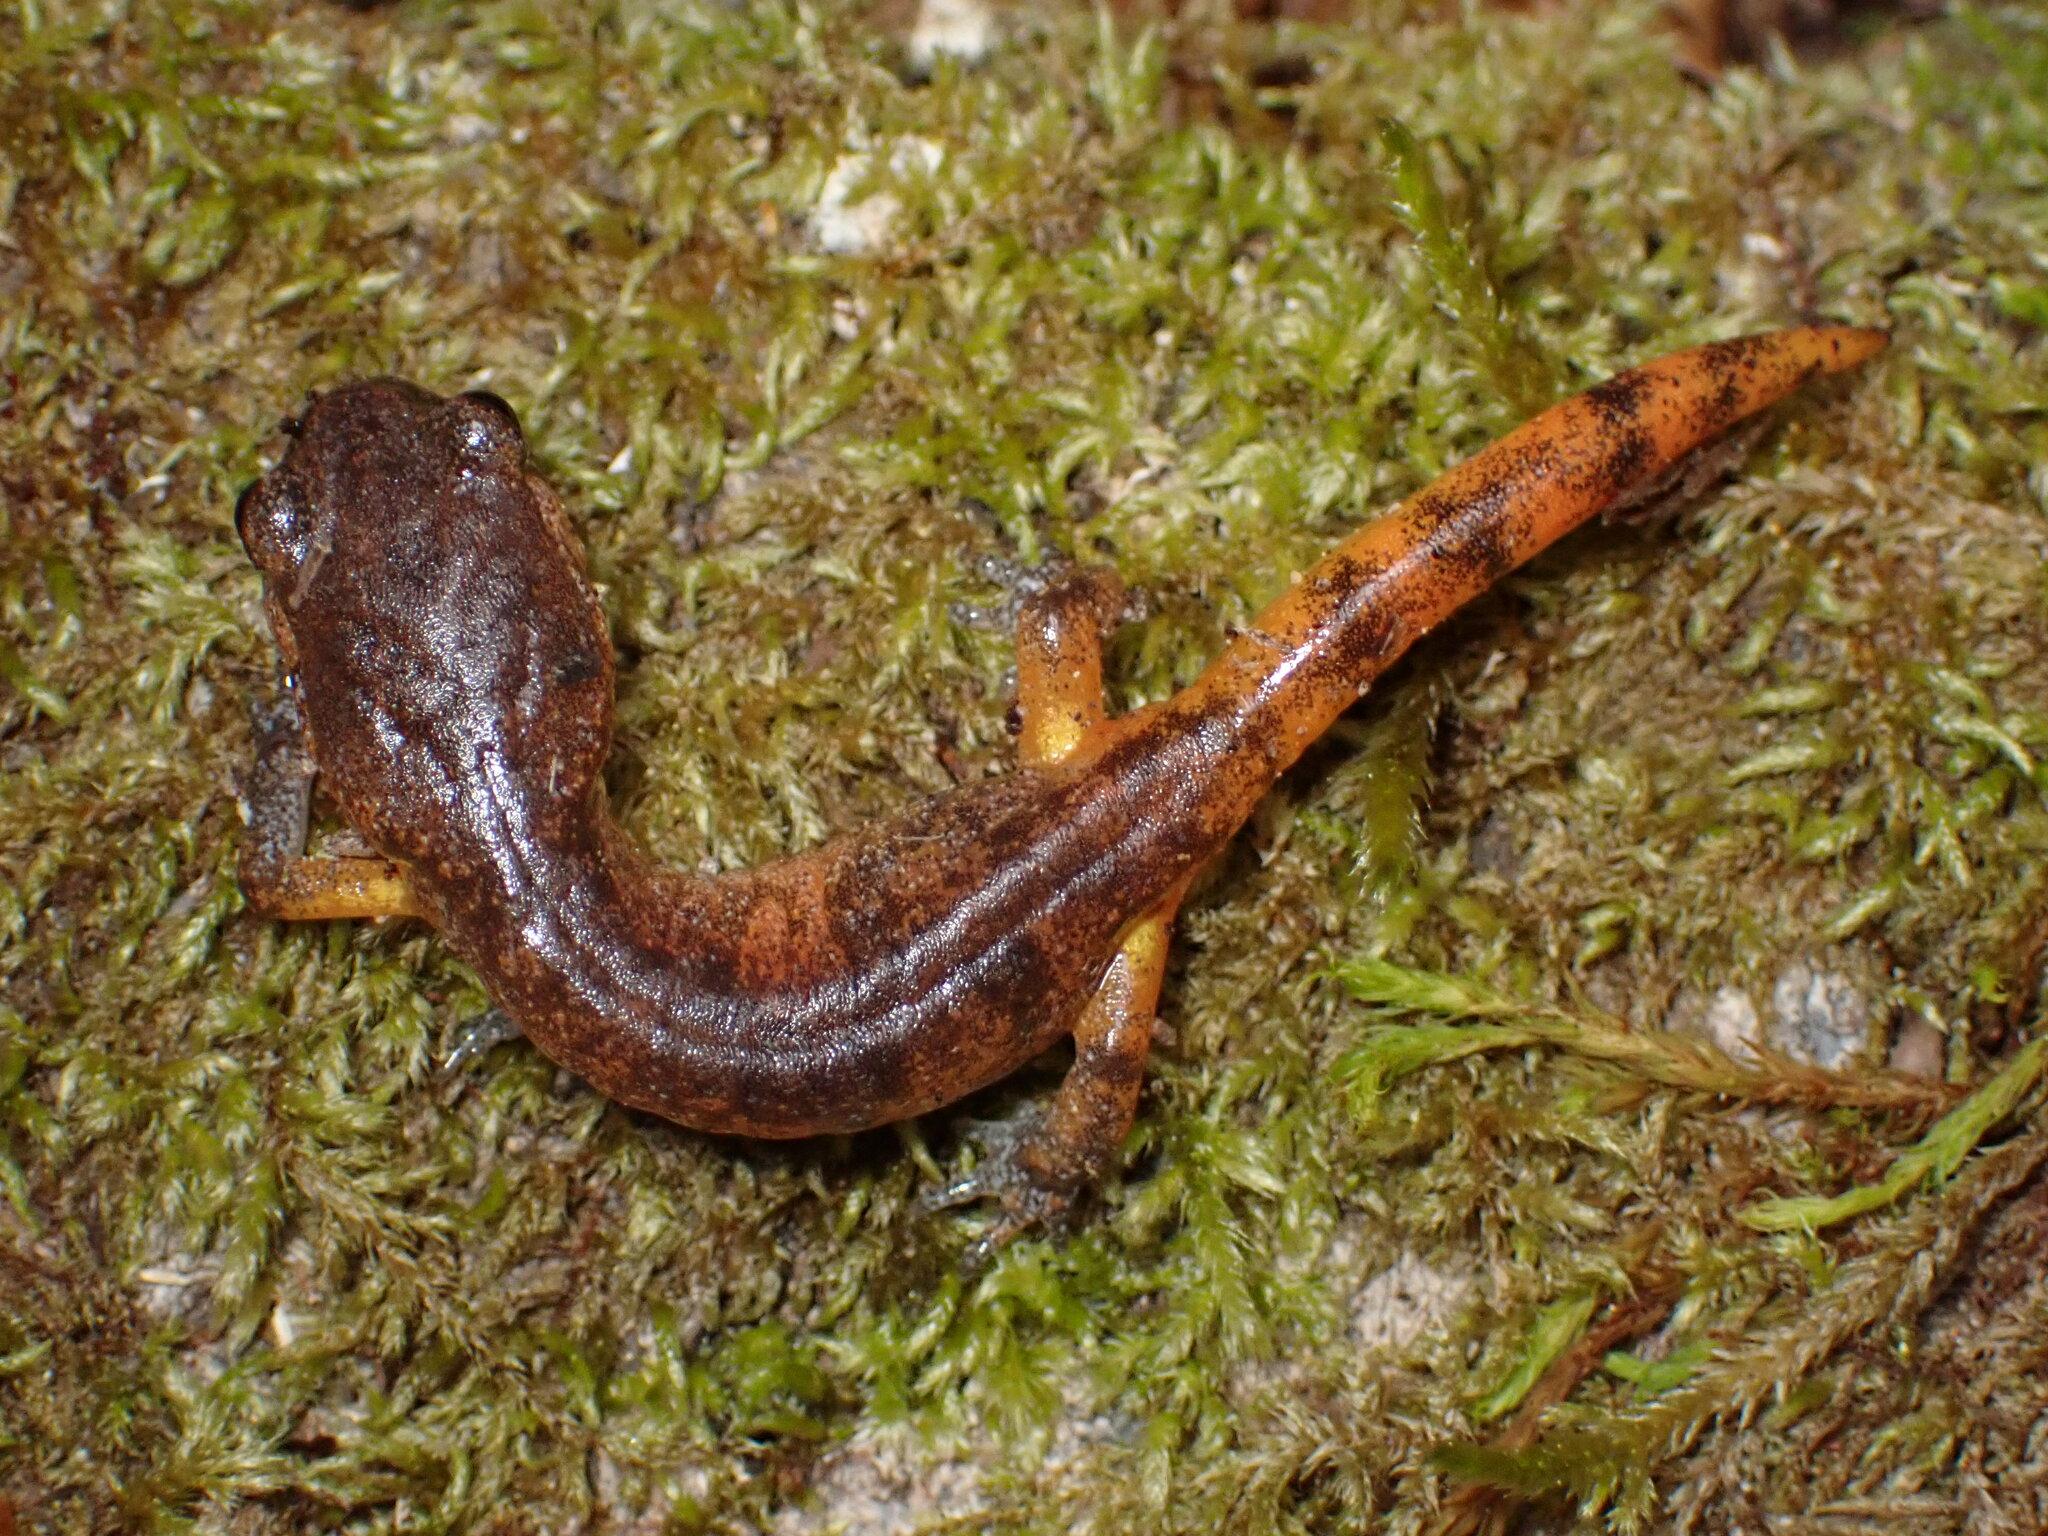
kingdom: Animalia
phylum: Chordata
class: Amphibia
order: Caudata
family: Plethodontidae
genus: Ensatina
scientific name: Ensatina eschscholtzii
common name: Ensatina
